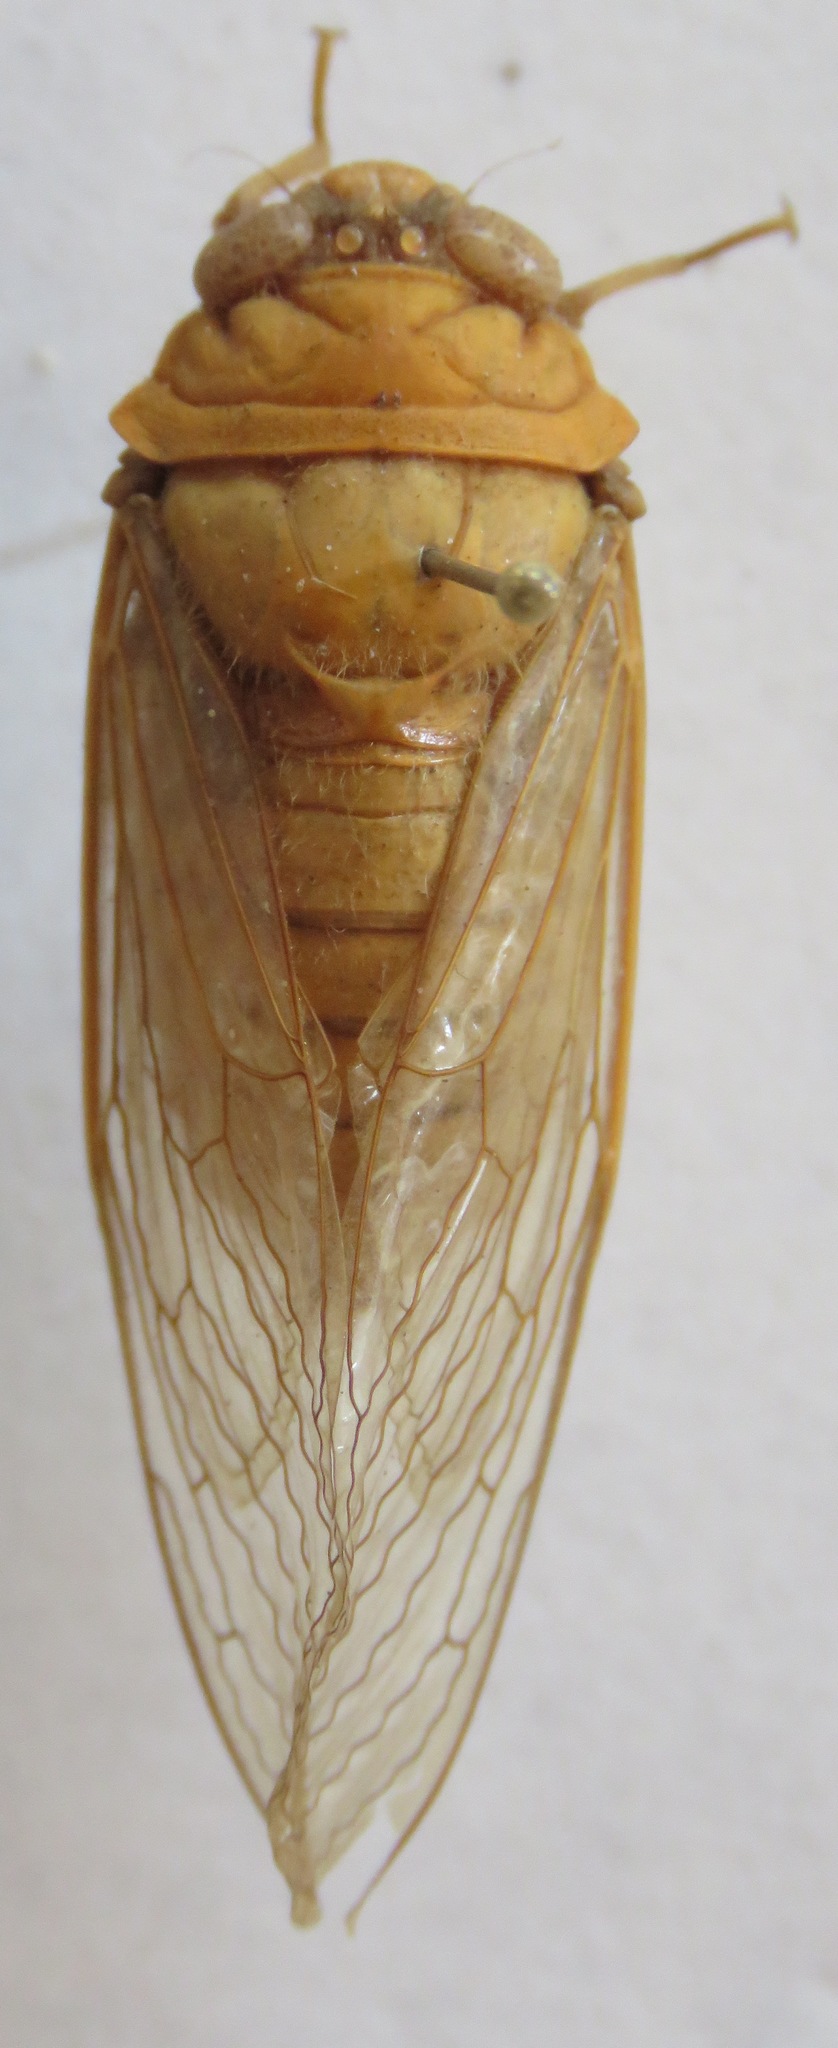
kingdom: Animalia
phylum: Arthropoda
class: Insecta
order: Hemiptera
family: Cicadidae
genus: Carineta
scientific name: Carineta viridicata
